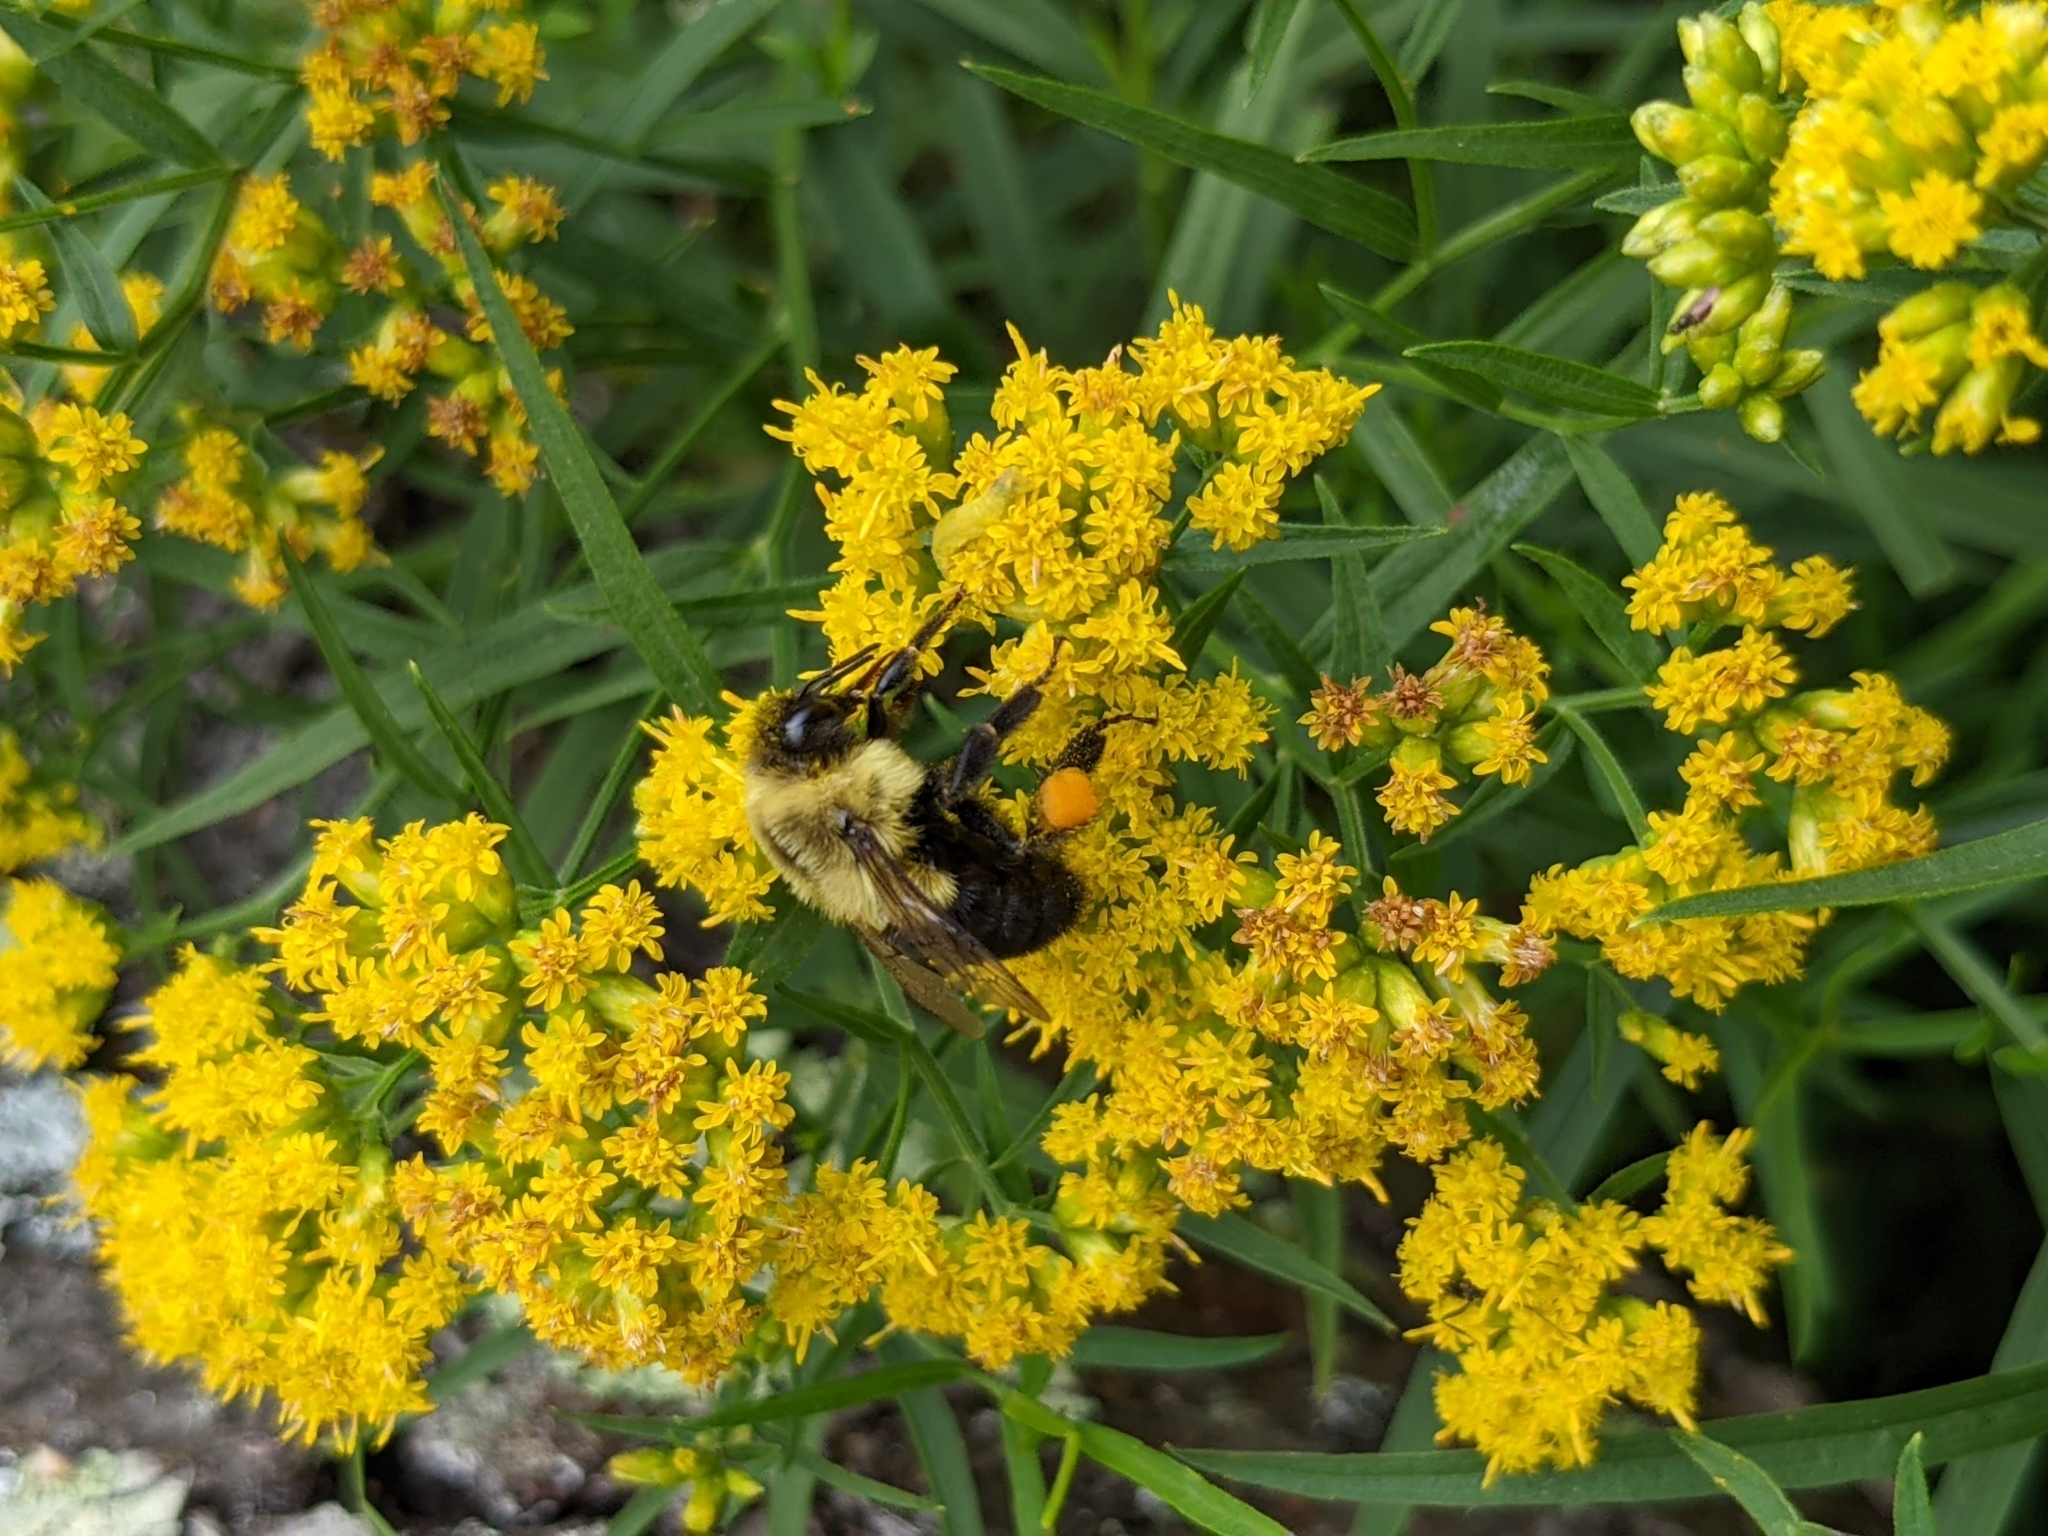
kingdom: Animalia
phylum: Arthropoda
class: Insecta
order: Hymenoptera
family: Apidae
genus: Bombus
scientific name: Bombus impatiens
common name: Common eastern bumble bee
